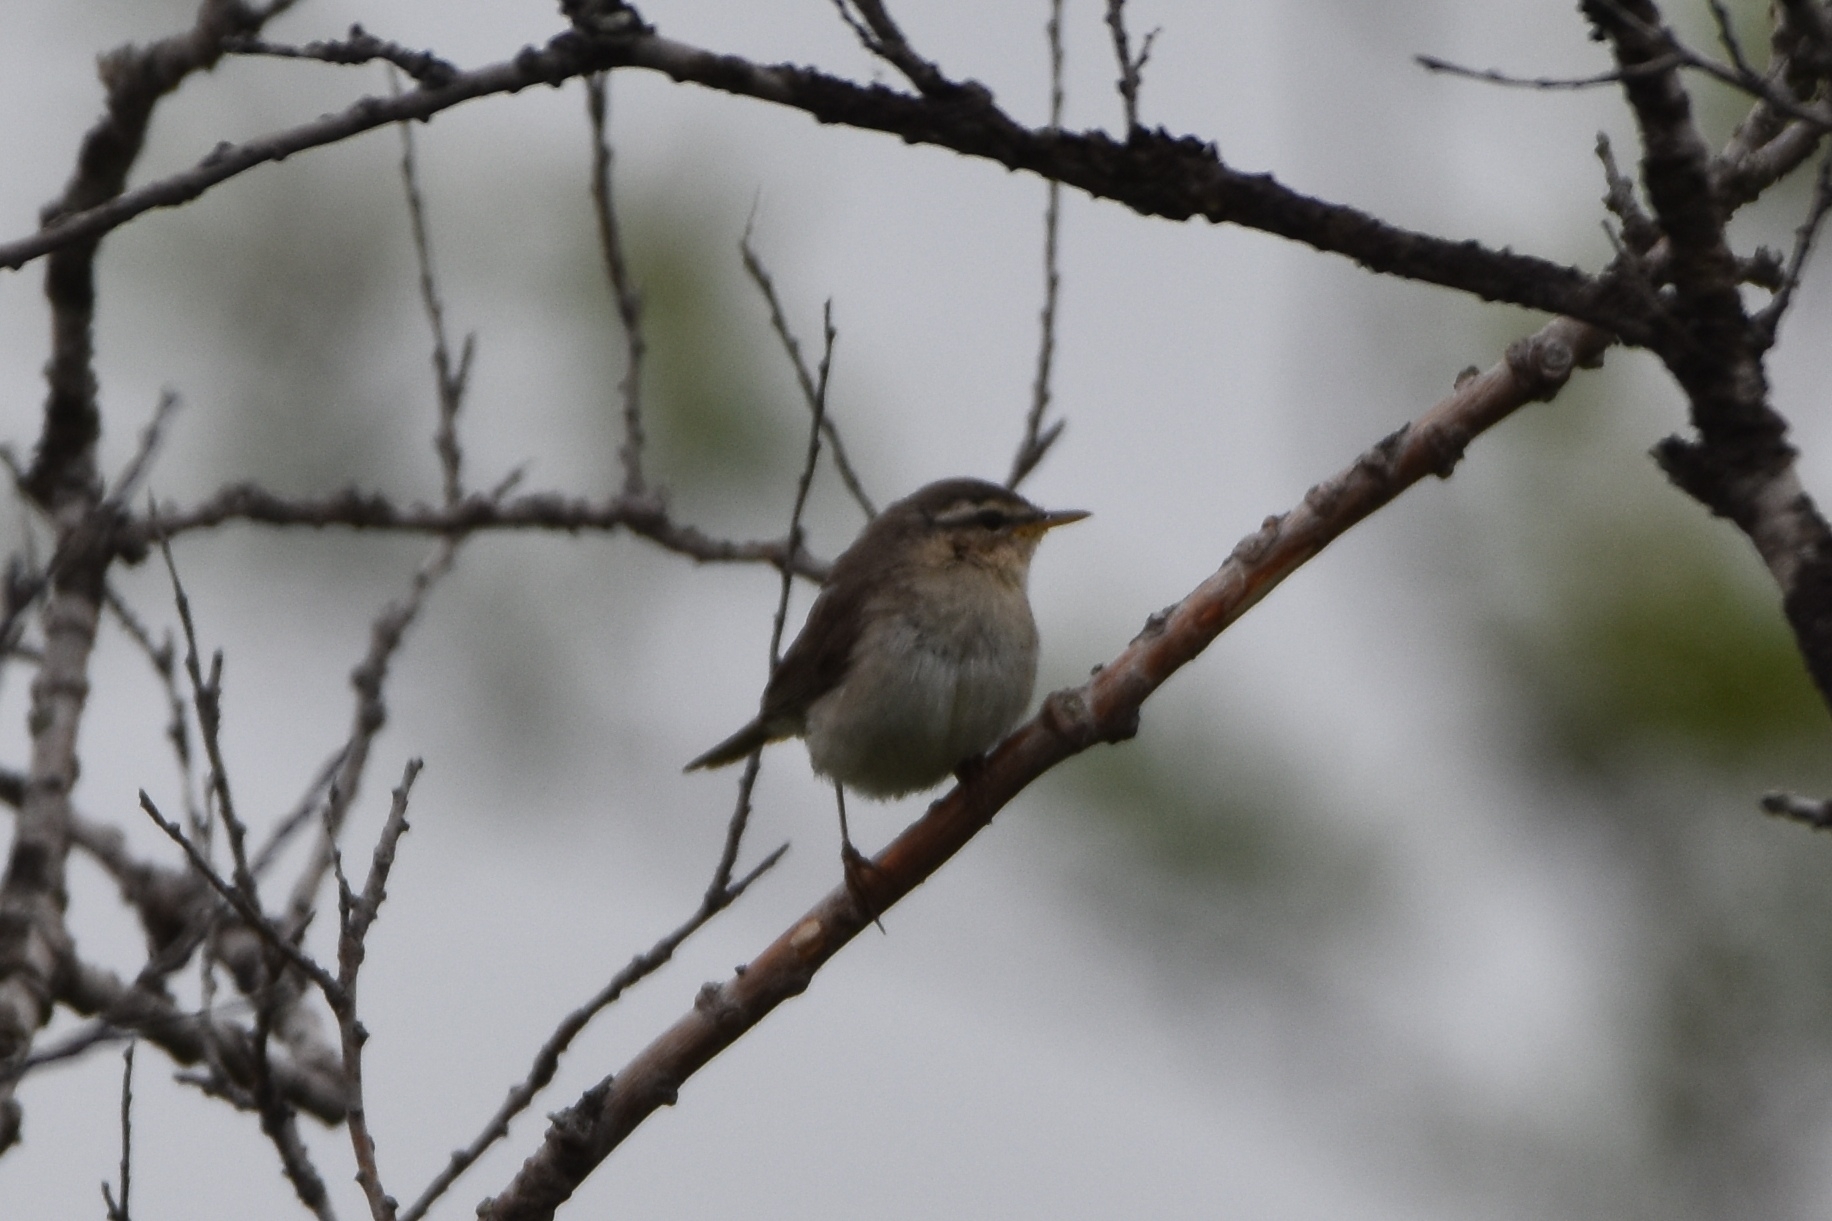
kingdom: Animalia
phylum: Chordata
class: Aves
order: Passeriformes
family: Phylloscopidae
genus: Phylloscopus
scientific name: Phylloscopus fuscatus
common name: Dusky warbler
